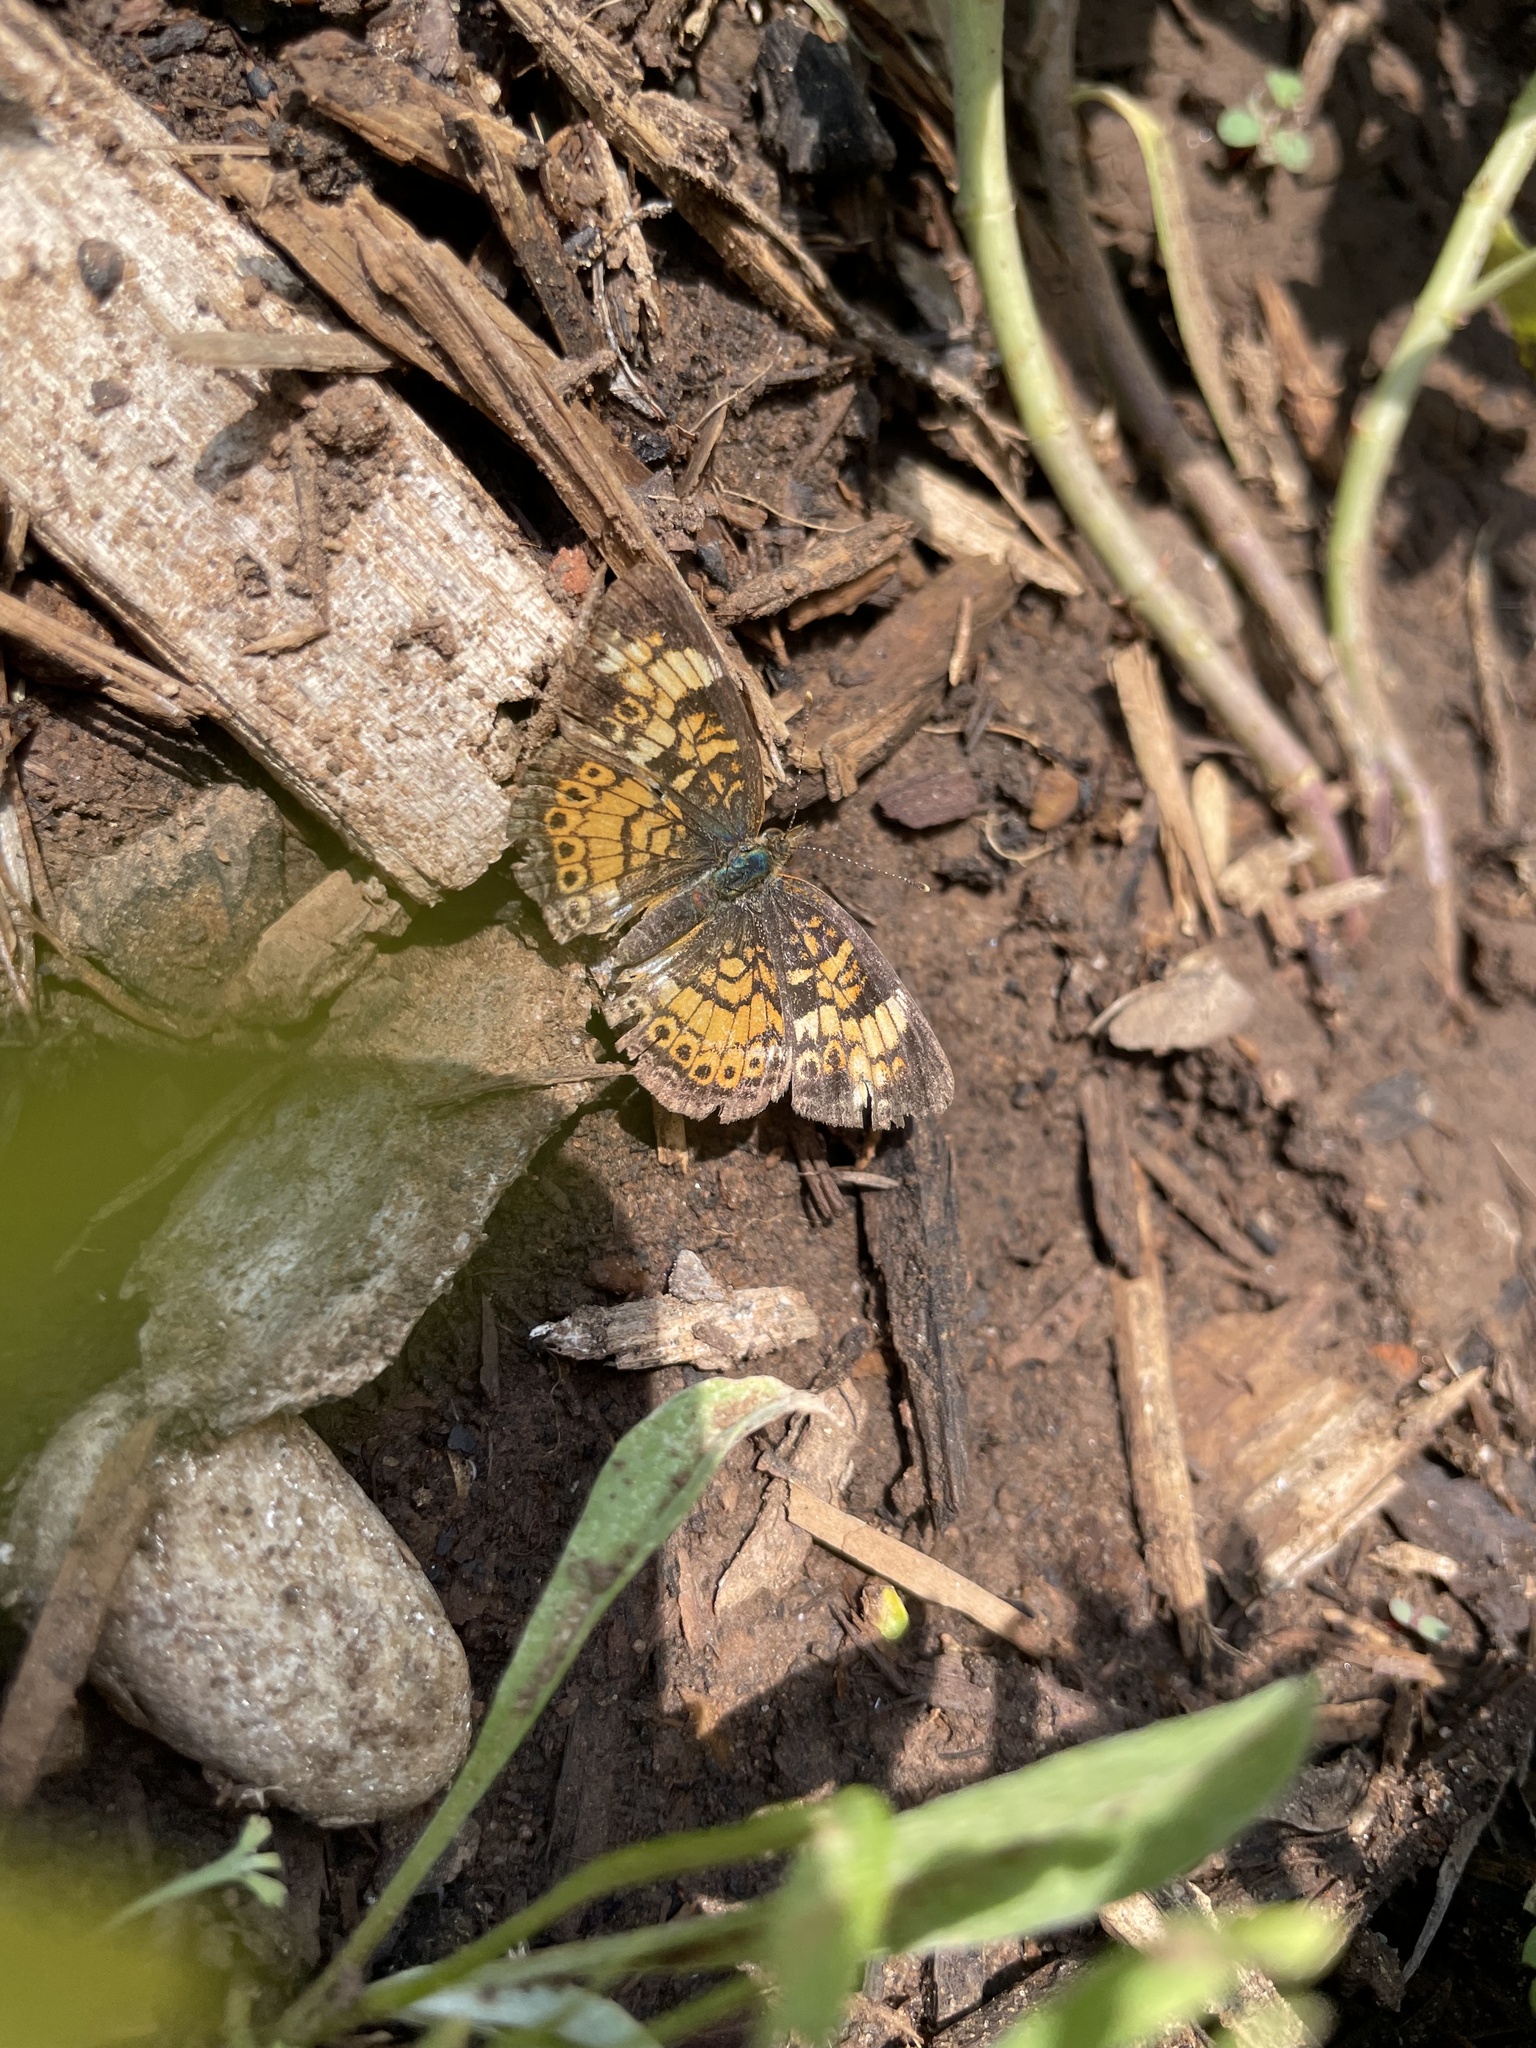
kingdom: Animalia
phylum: Arthropoda
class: Insecta
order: Lepidoptera
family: Nymphalidae
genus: Phyciodes
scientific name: Phyciodes tharos
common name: Pearl crescent
